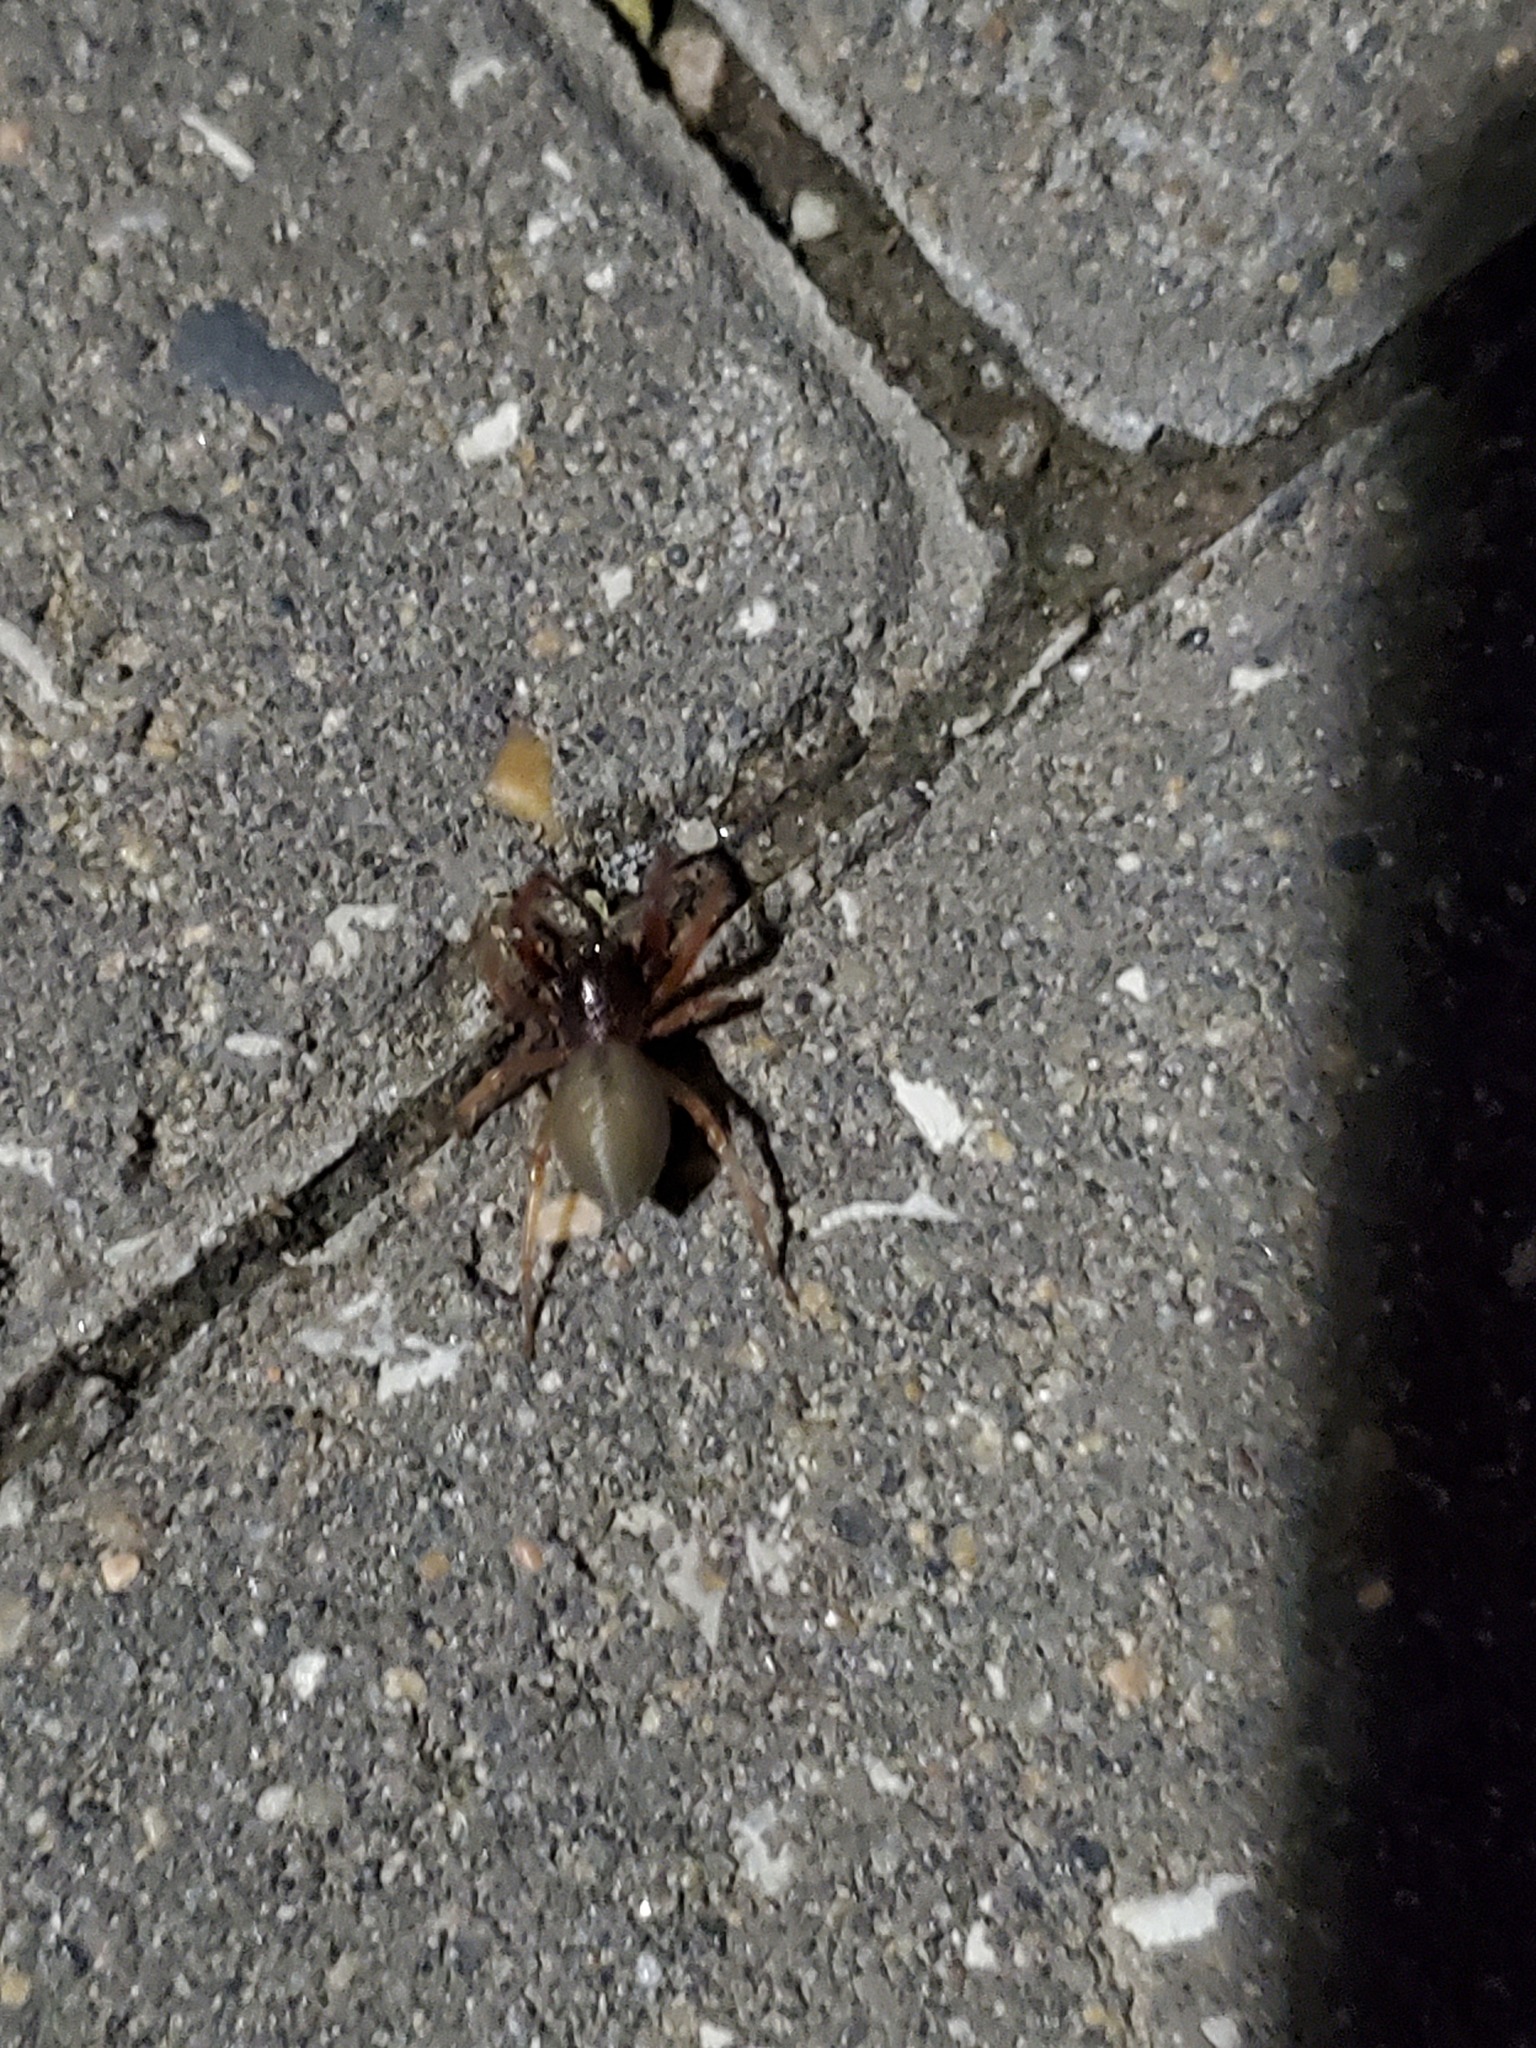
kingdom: Animalia
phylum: Arthropoda
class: Arachnida
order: Araneae
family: Trachelidae
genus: Trachelas
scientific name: Trachelas tranquillus
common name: Broad-faced sac spider
